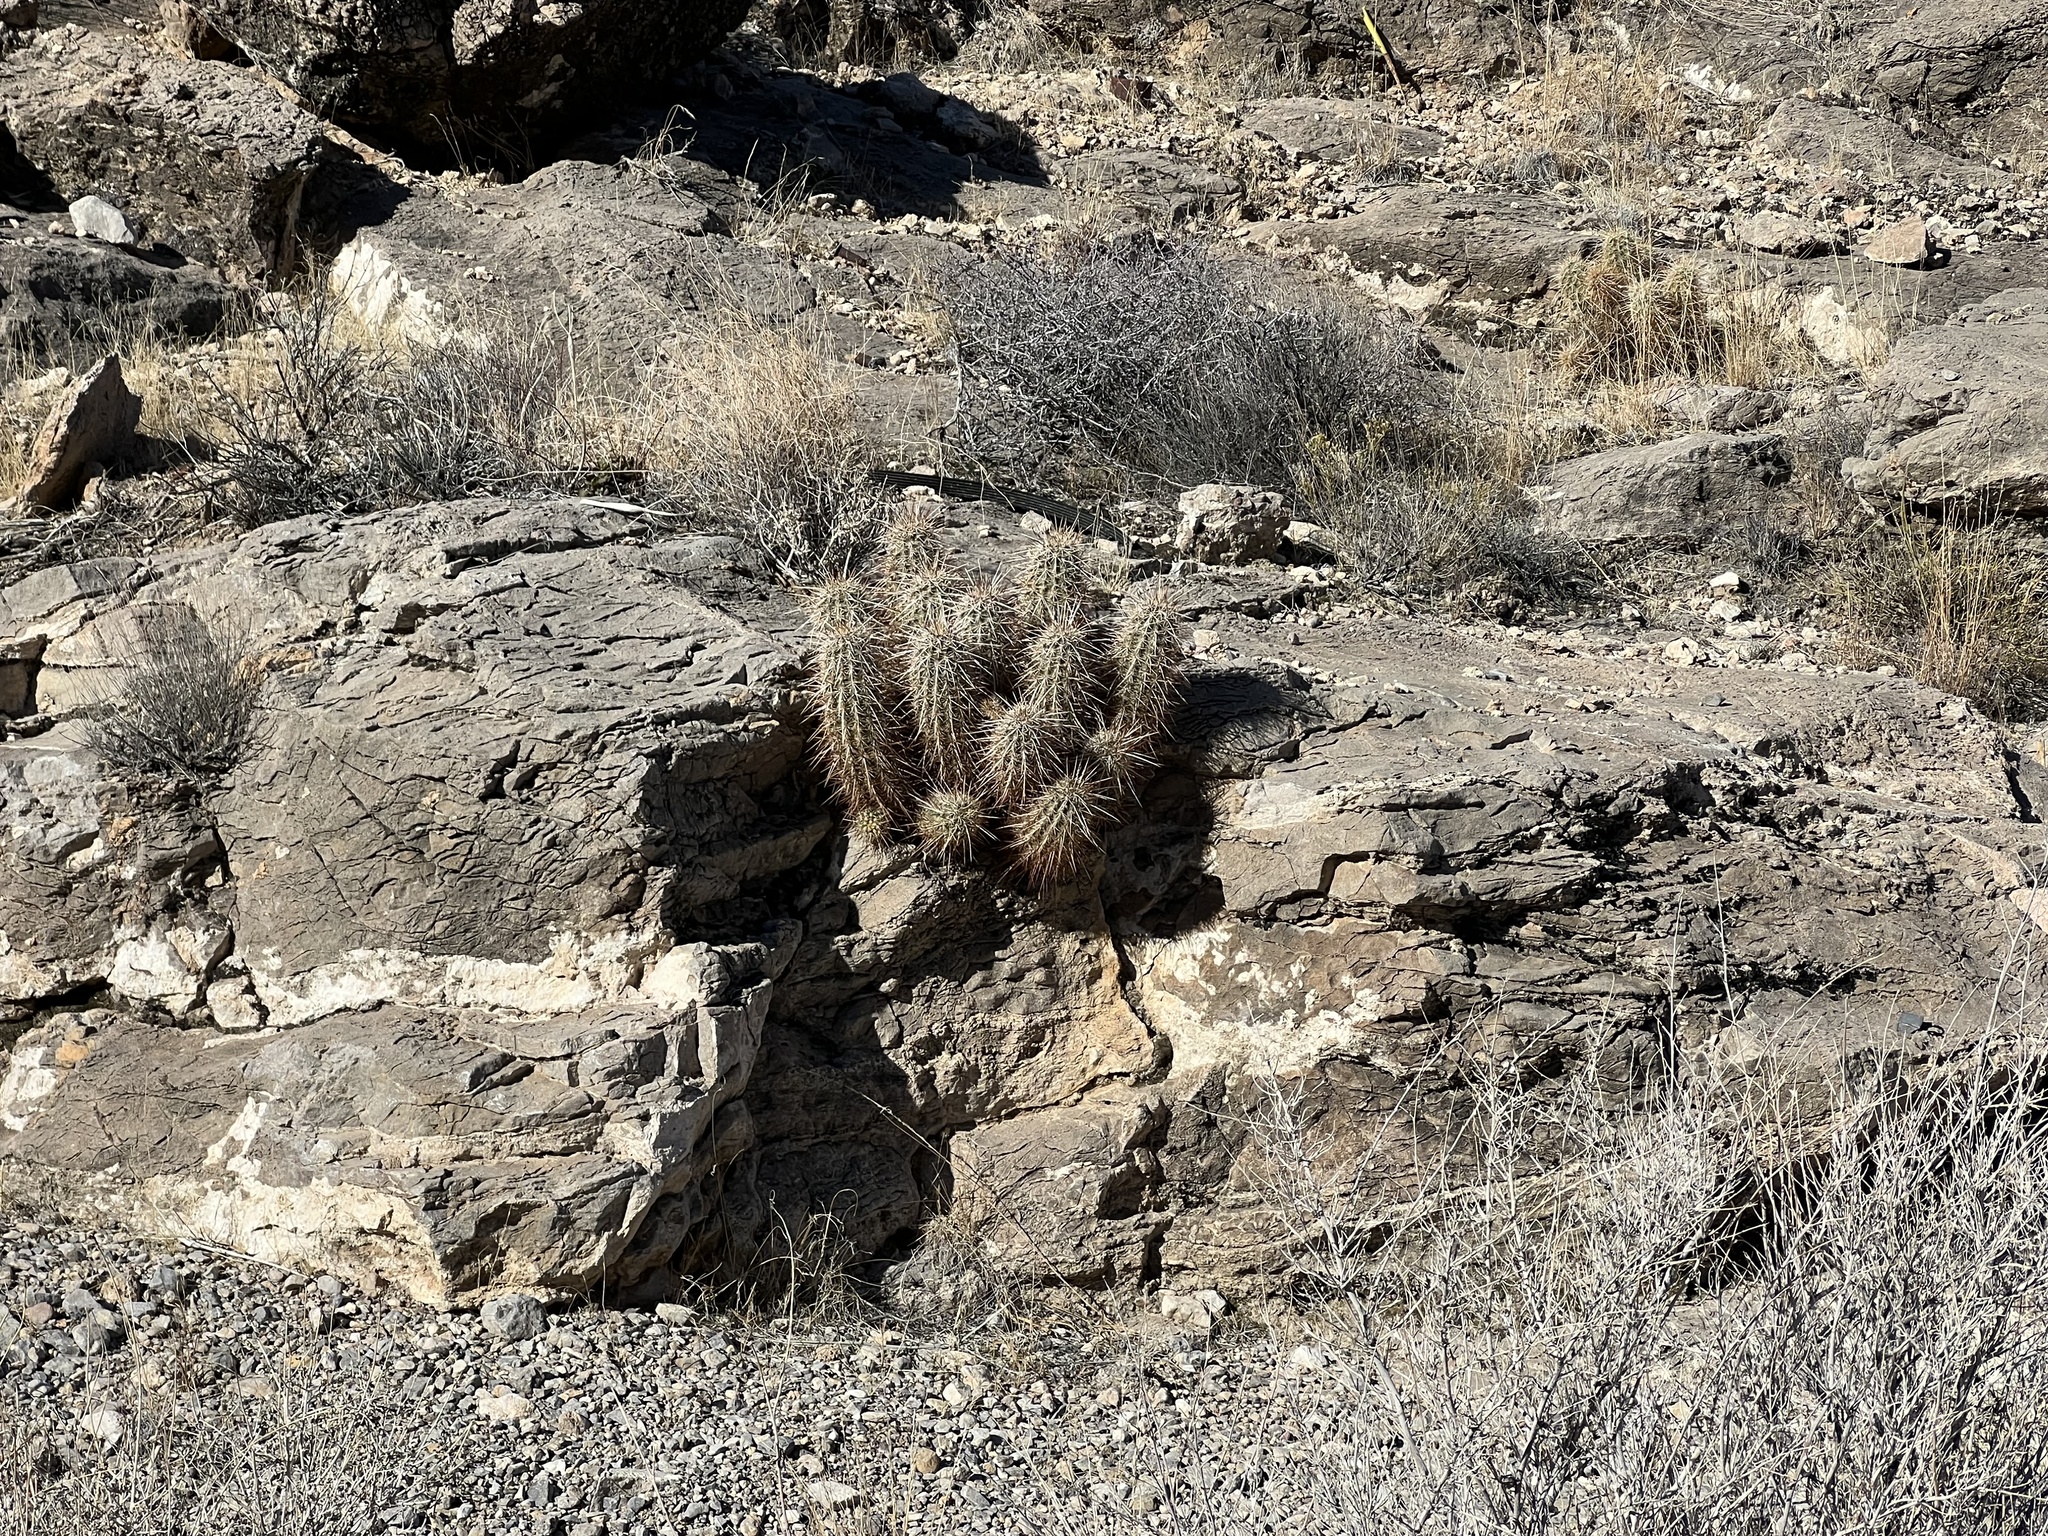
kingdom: Plantae
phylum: Tracheophyta
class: Magnoliopsida
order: Caryophyllales
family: Cactaceae
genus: Echinocereus
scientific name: Echinocereus engelmannii
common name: Engelmann's hedgehog cactus
